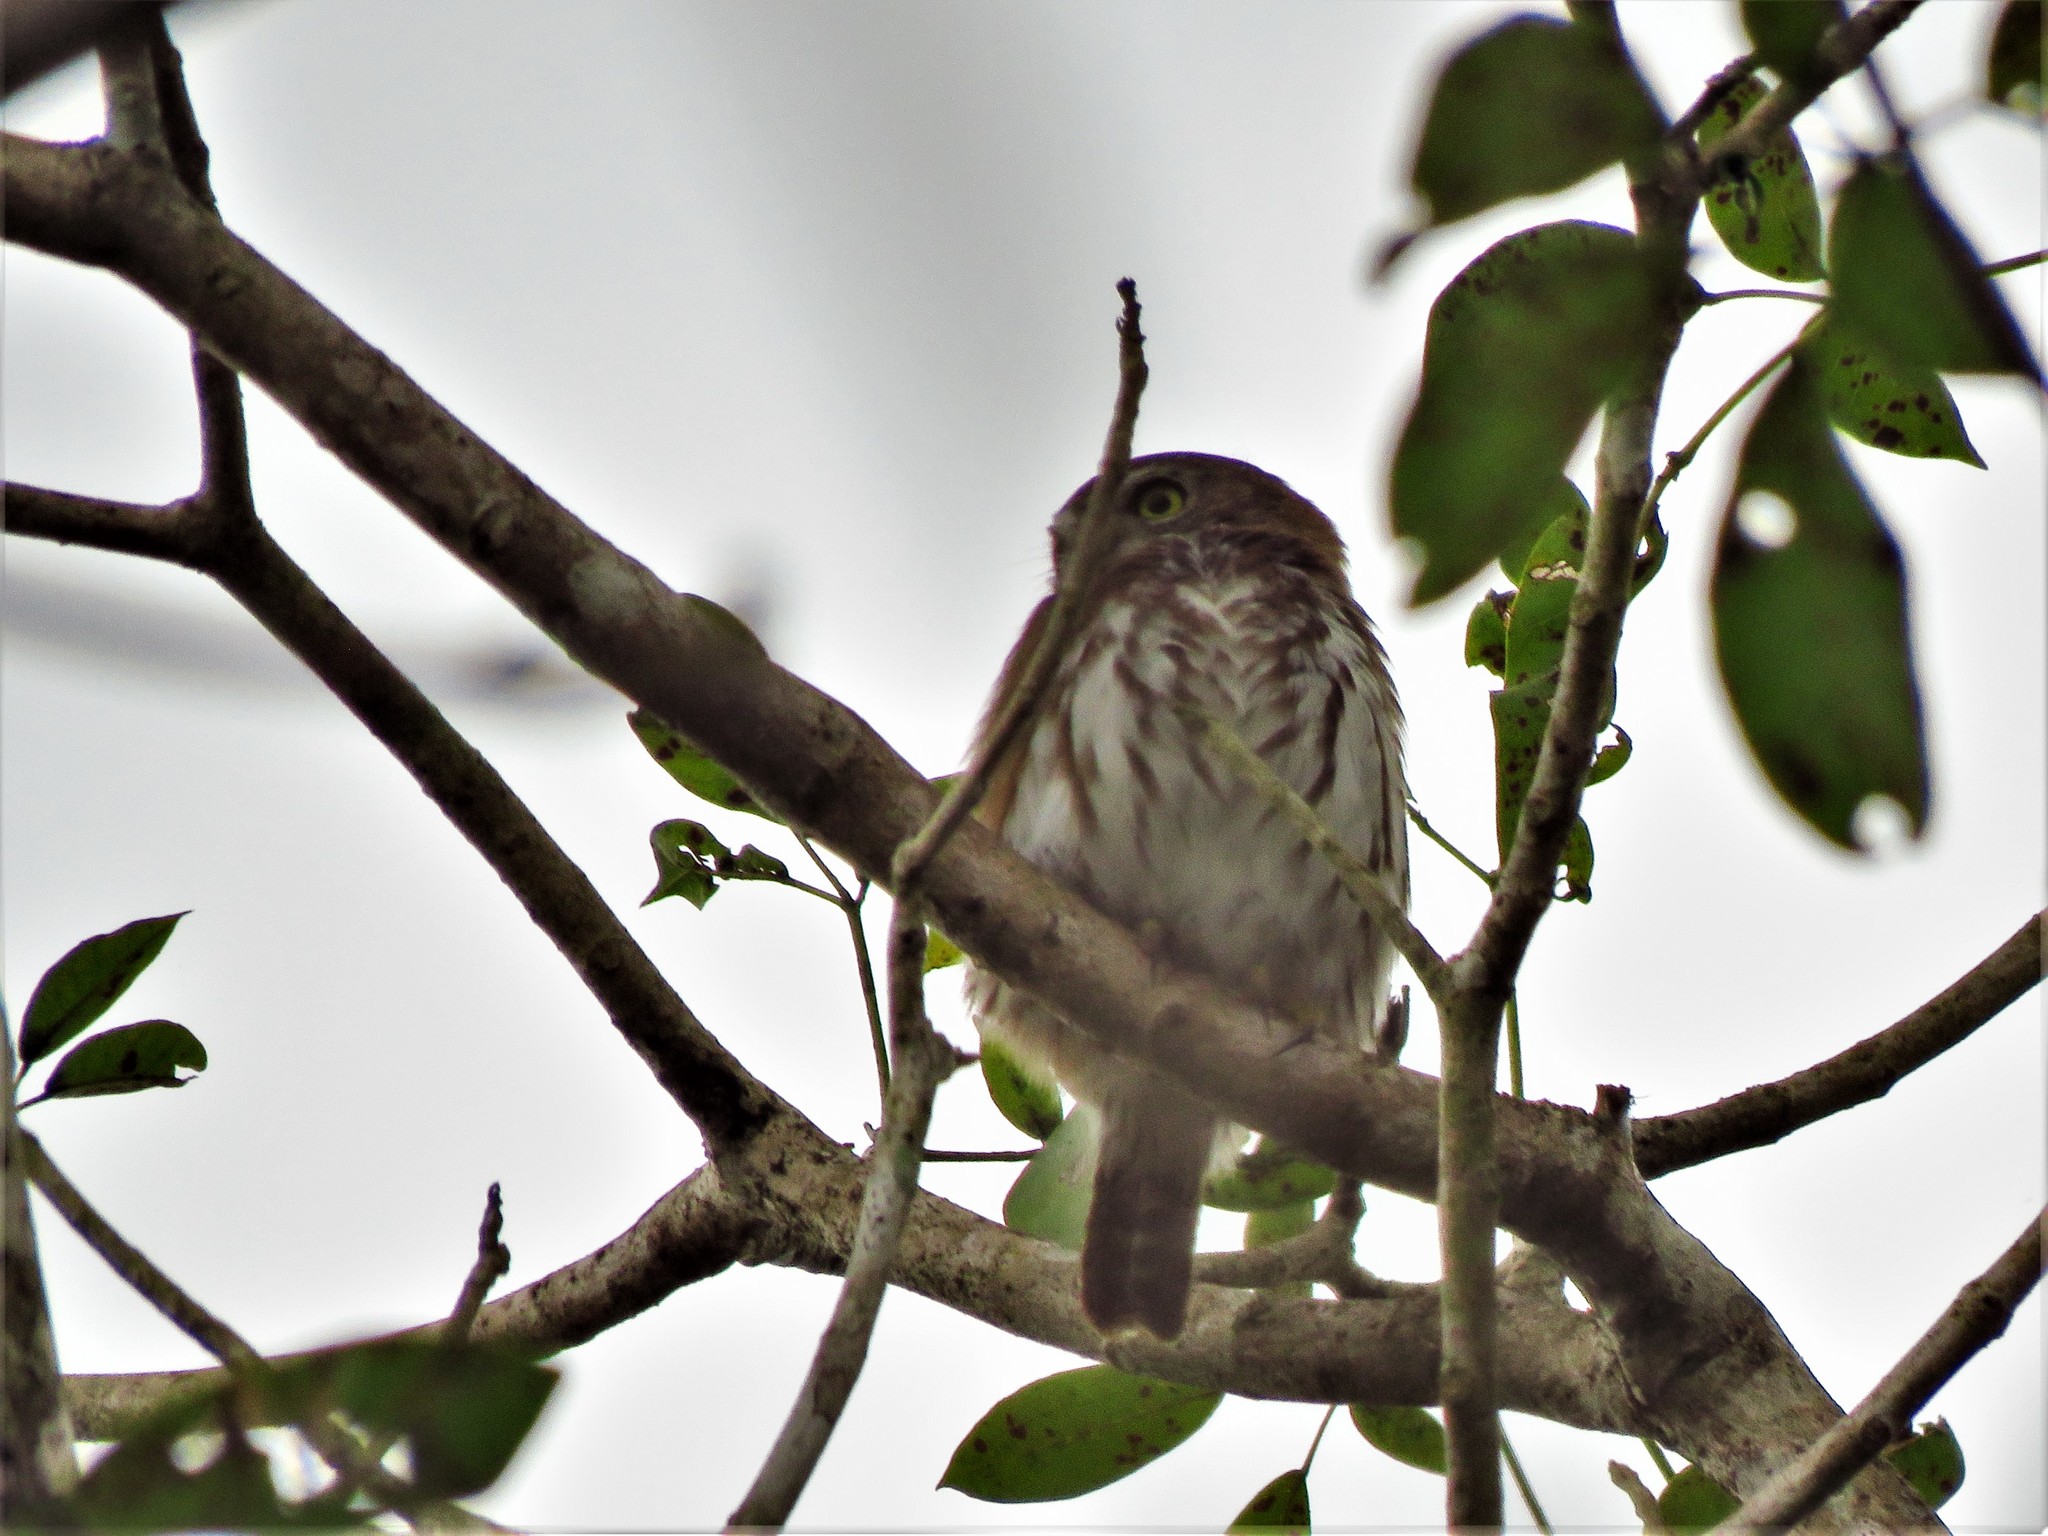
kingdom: Animalia
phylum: Chordata
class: Aves
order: Strigiformes
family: Strigidae
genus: Glaucidium
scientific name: Glaucidium brasilianum
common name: Ferruginous pygmy-owl
